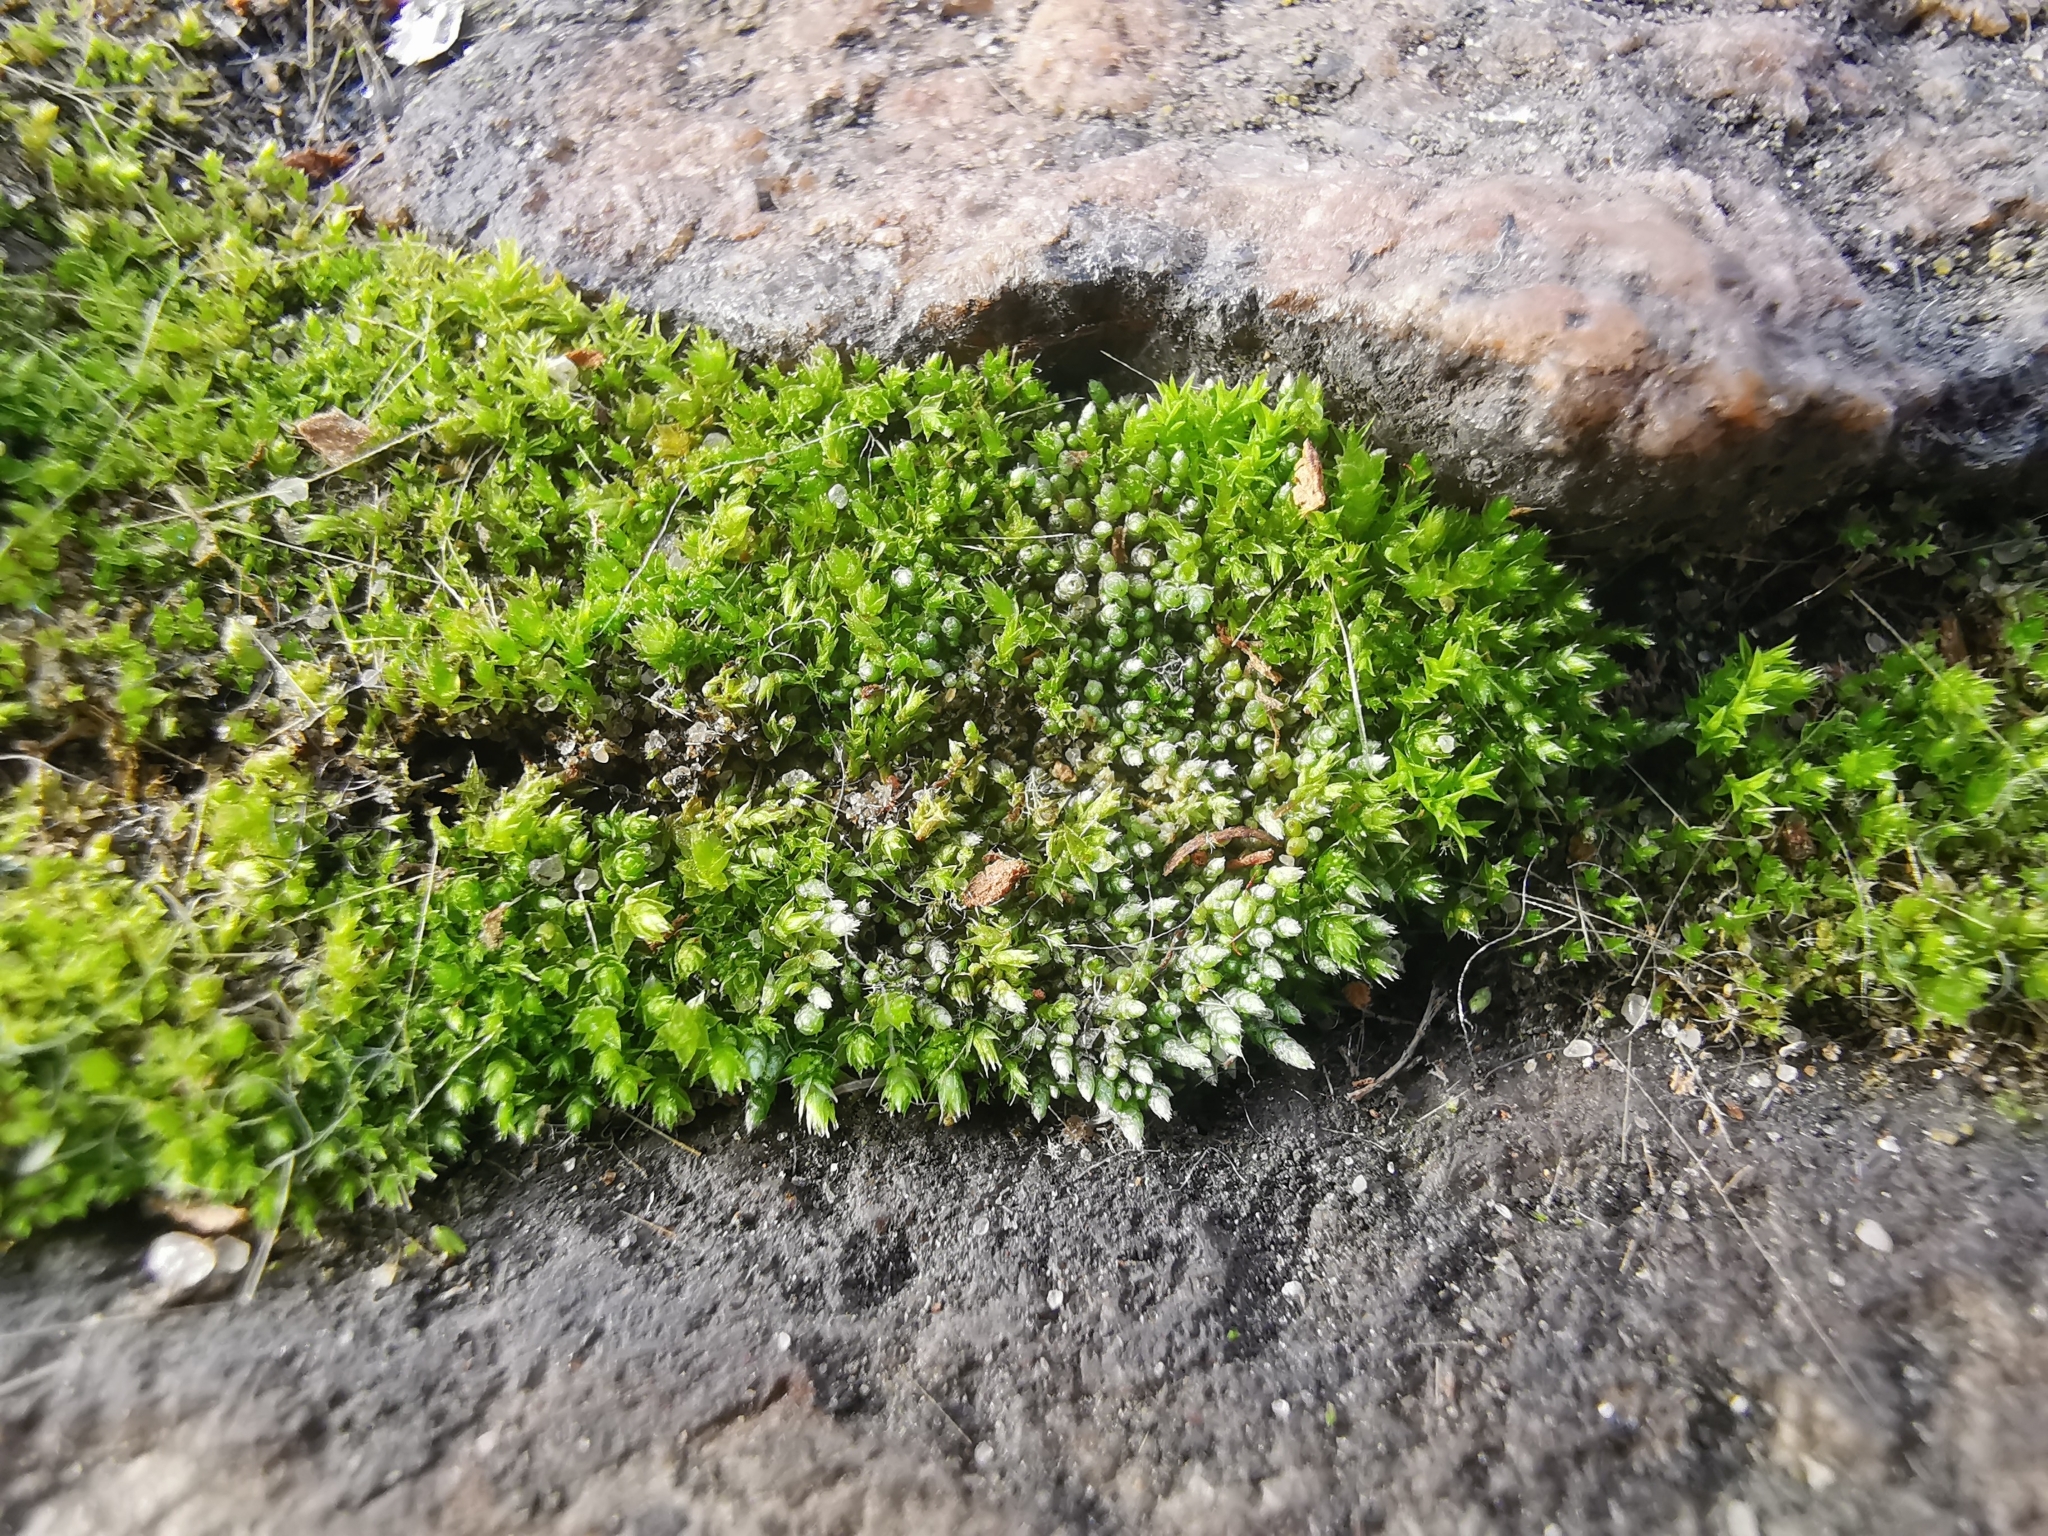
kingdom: Plantae
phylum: Bryophyta
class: Bryopsida
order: Bryales
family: Bryaceae
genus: Bryum
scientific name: Bryum argenteum
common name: Silver-moss
